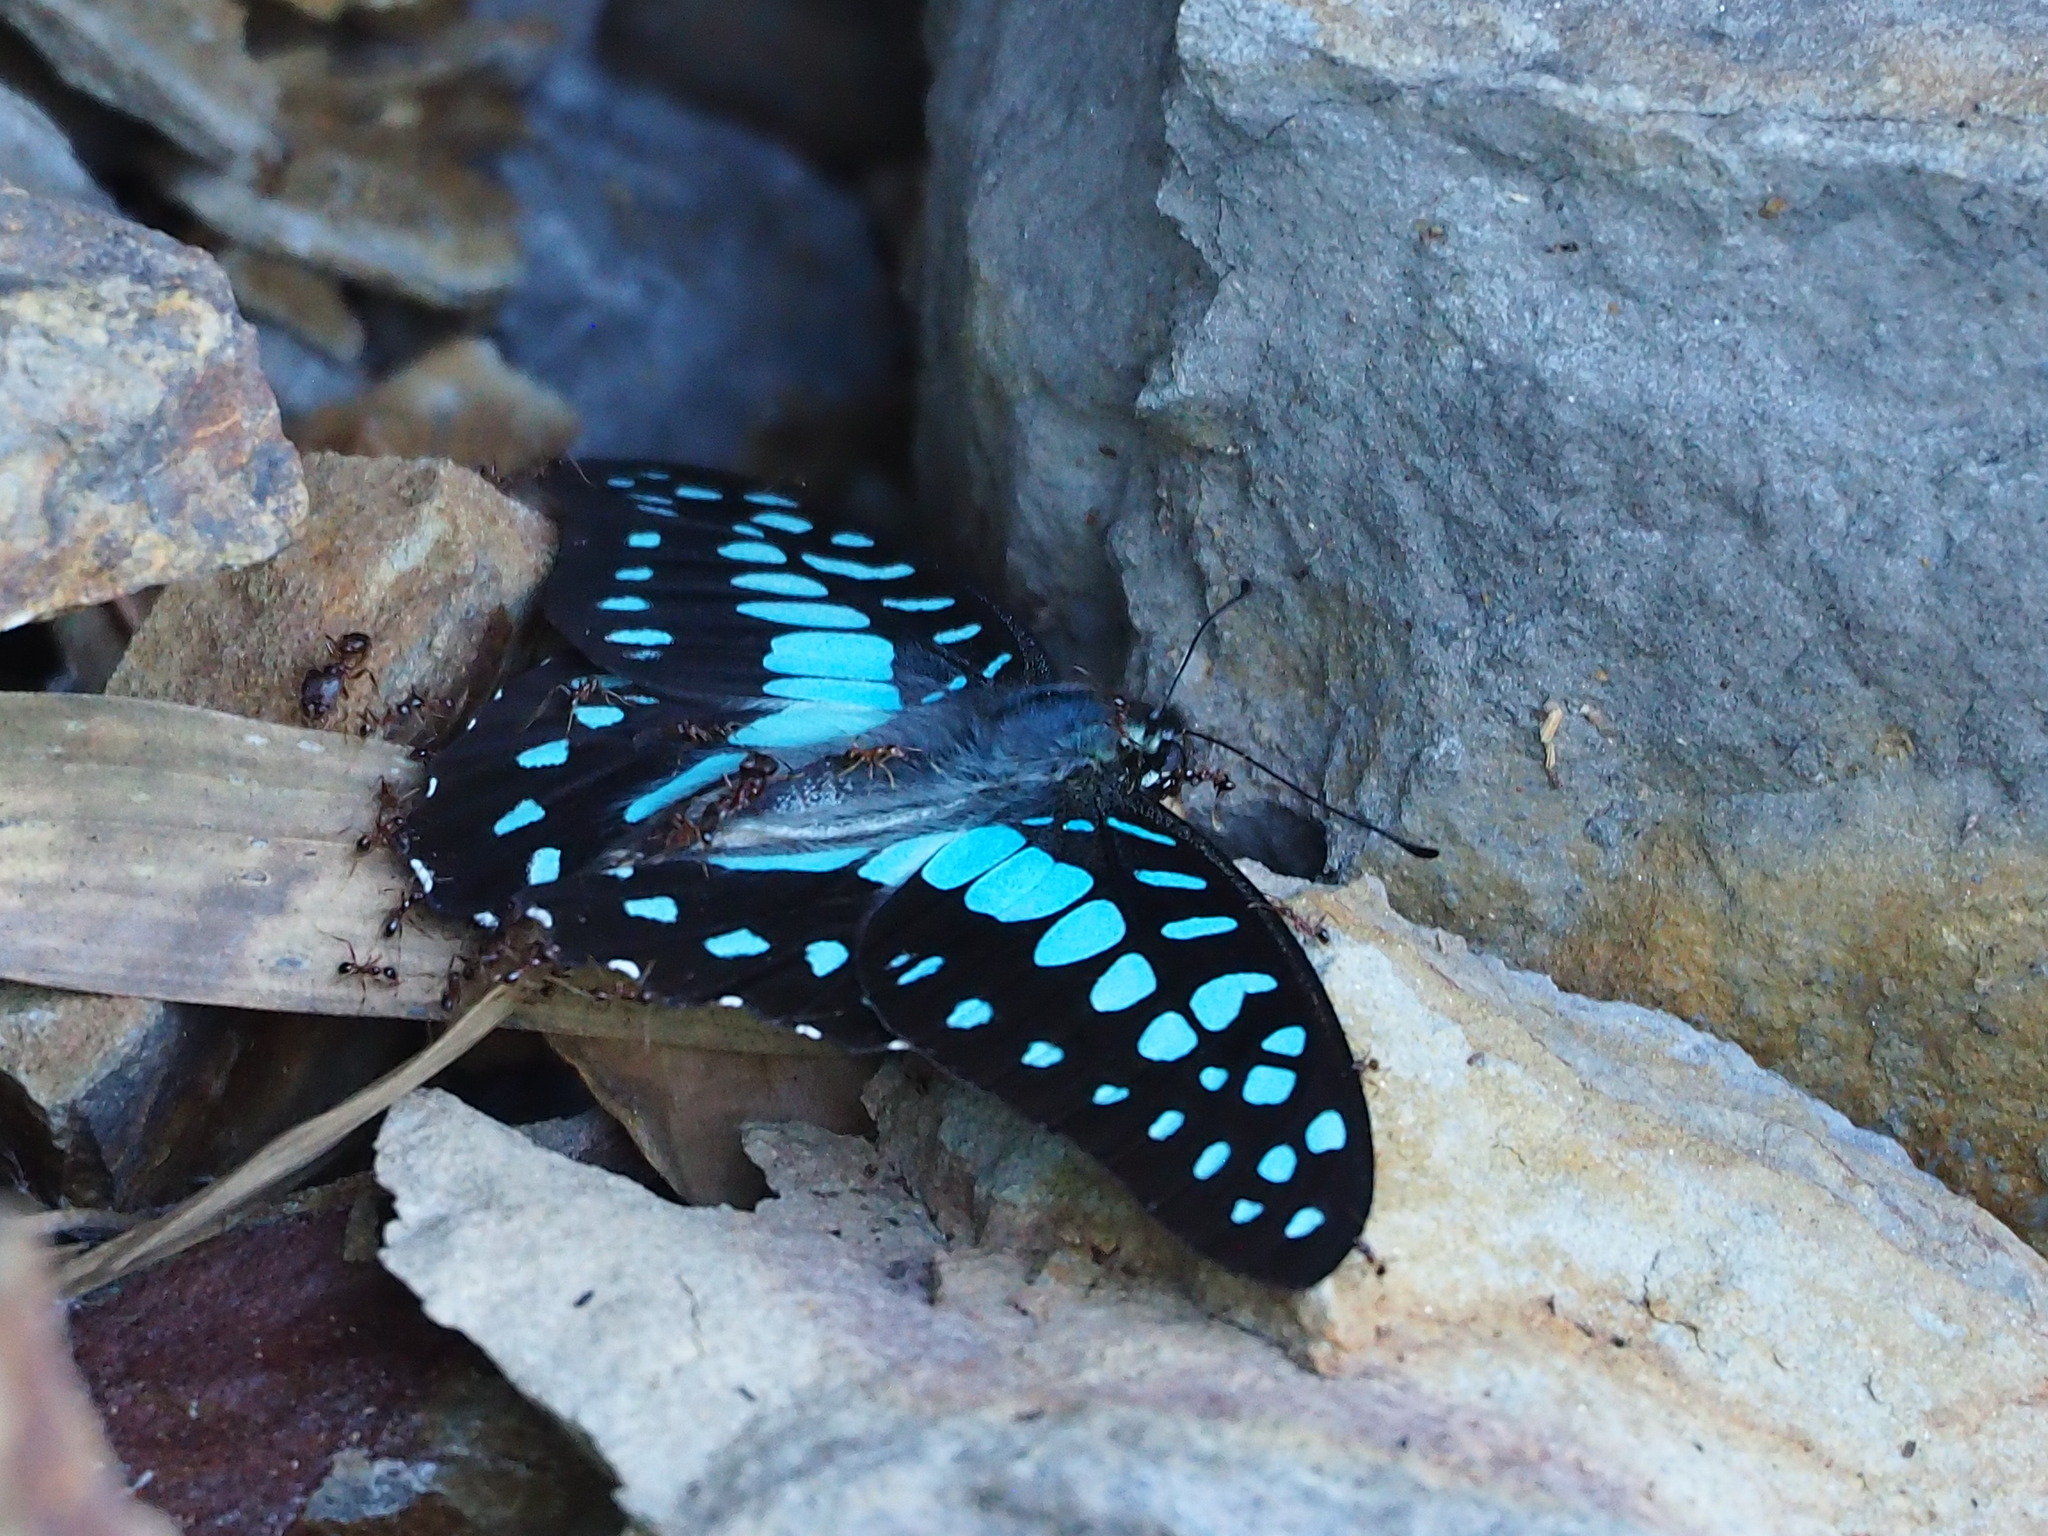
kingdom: Fungi
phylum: Ascomycota
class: Sordariomycetes
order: Microascales
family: Microascaceae
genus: Graphium
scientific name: Graphium sarpedon
